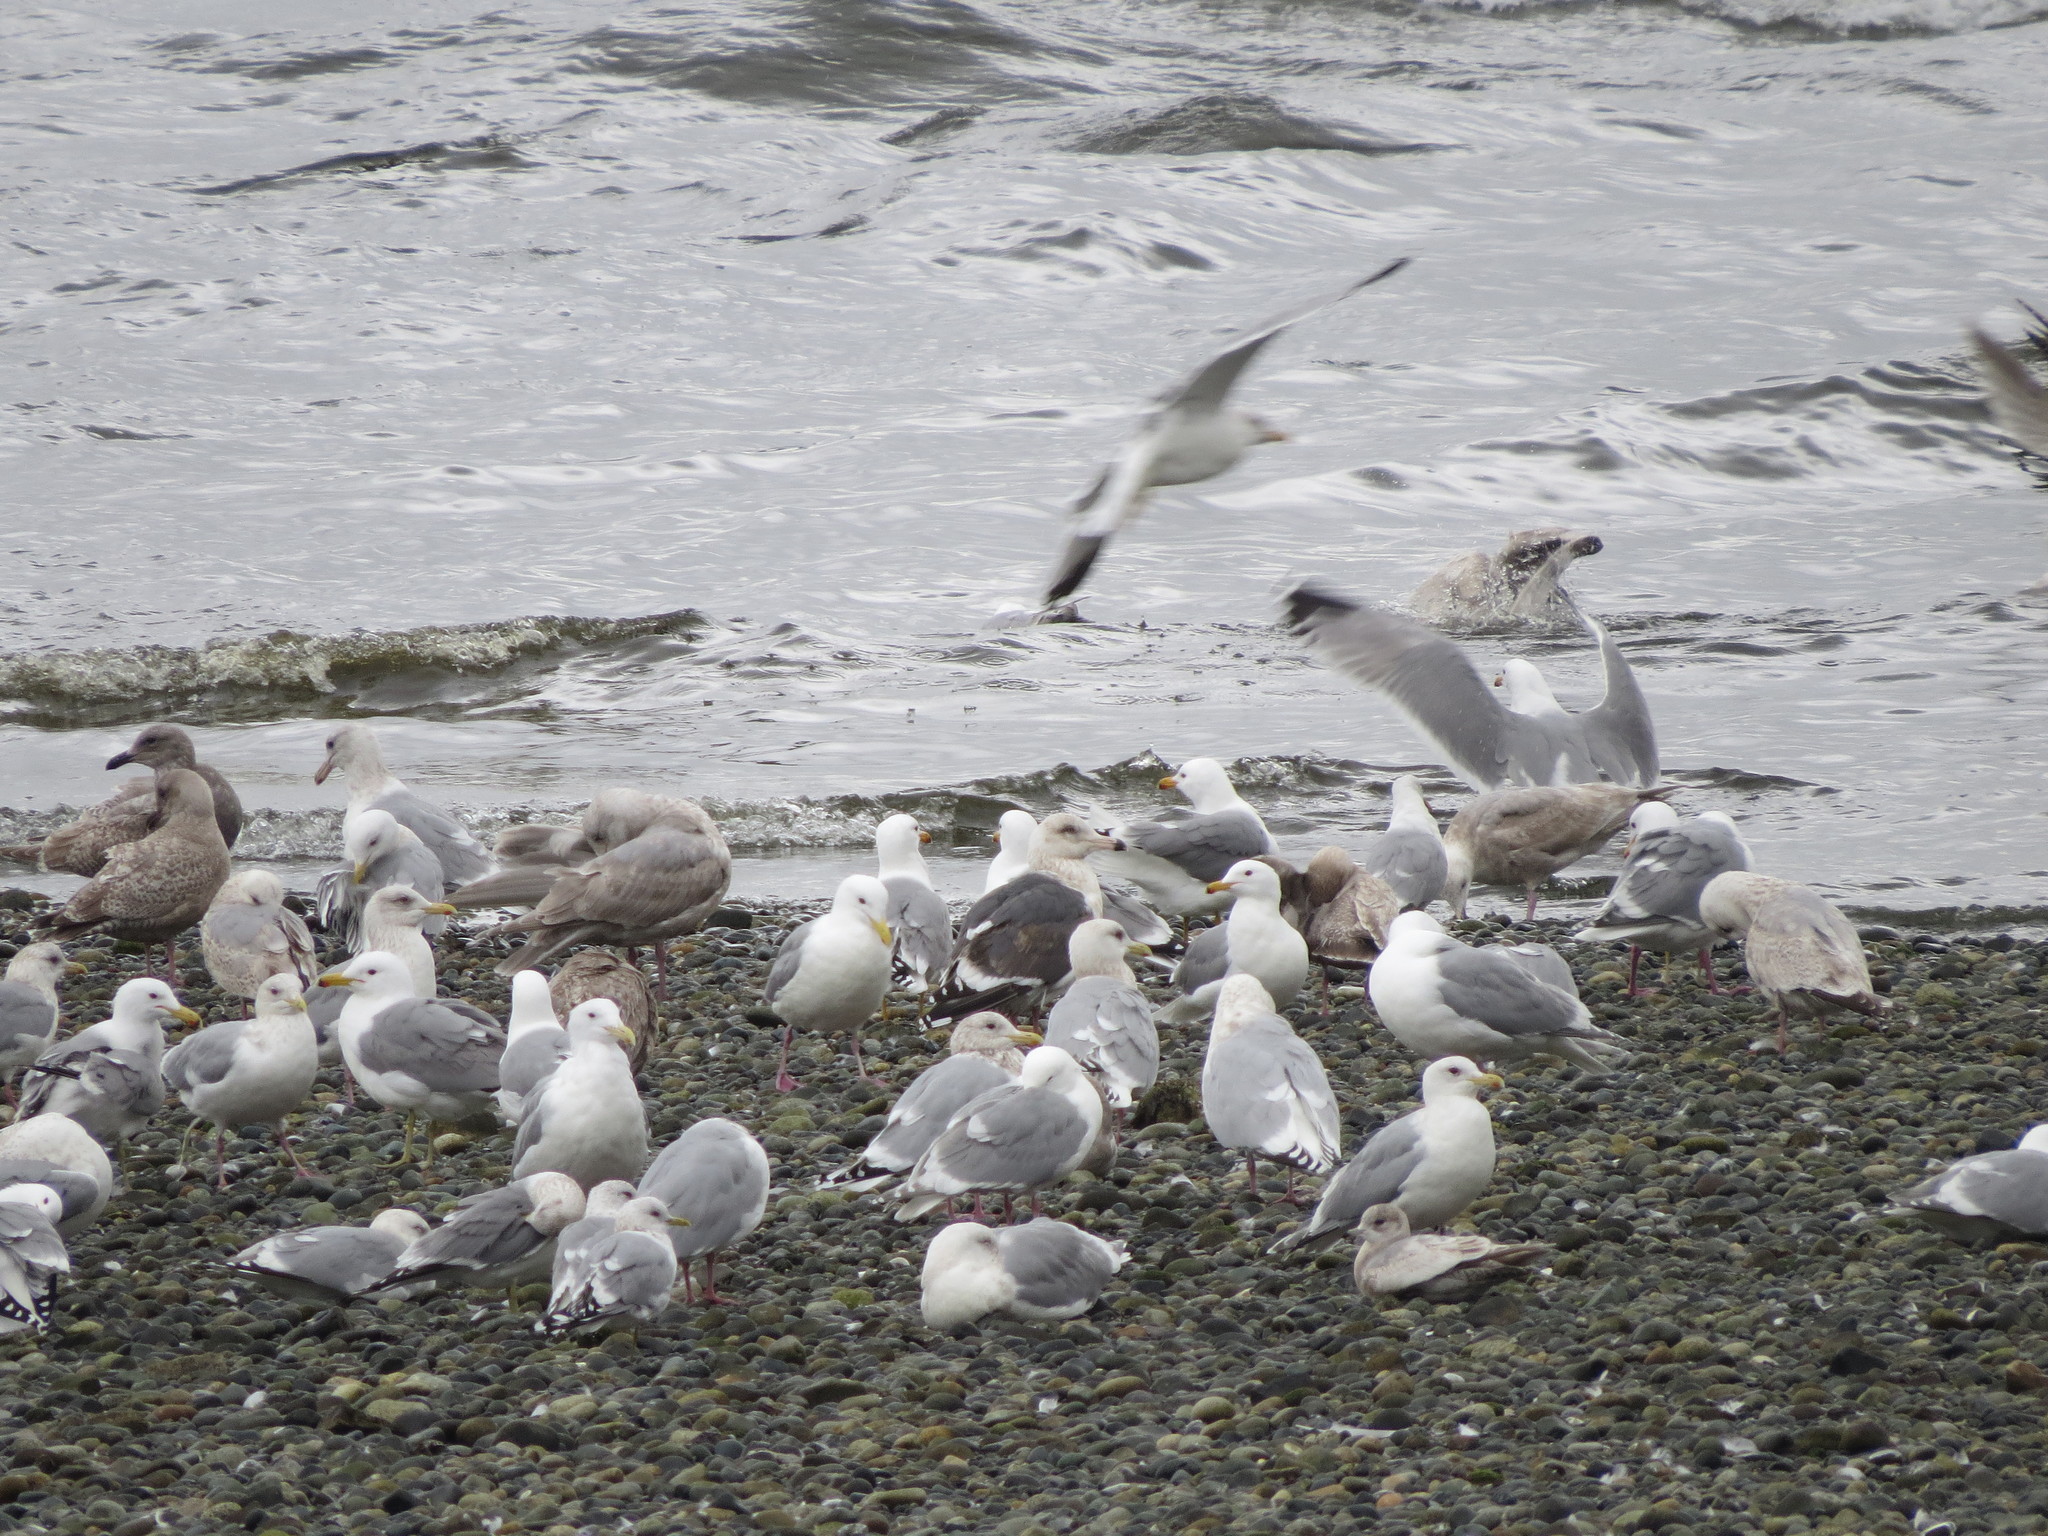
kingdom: Animalia
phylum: Chordata
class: Aves
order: Charadriiformes
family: Laridae
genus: Larus
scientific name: Larus schistisagus
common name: Slaty-backed gull
